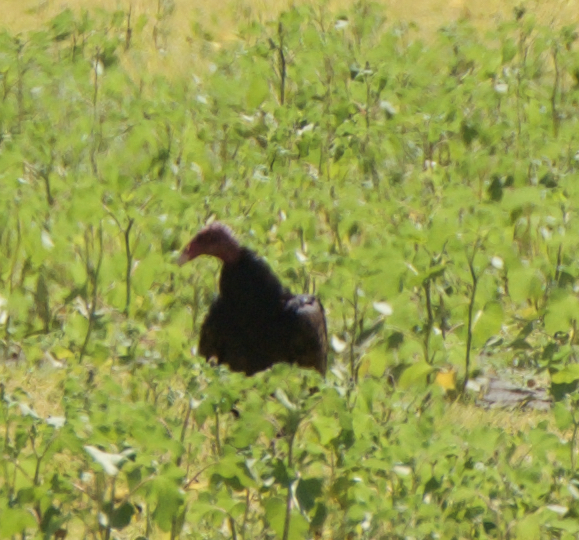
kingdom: Animalia
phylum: Chordata
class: Aves
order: Accipitriformes
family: Cathartidae
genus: Cathartes
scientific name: Cathartes aura
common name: Turkey vulture
